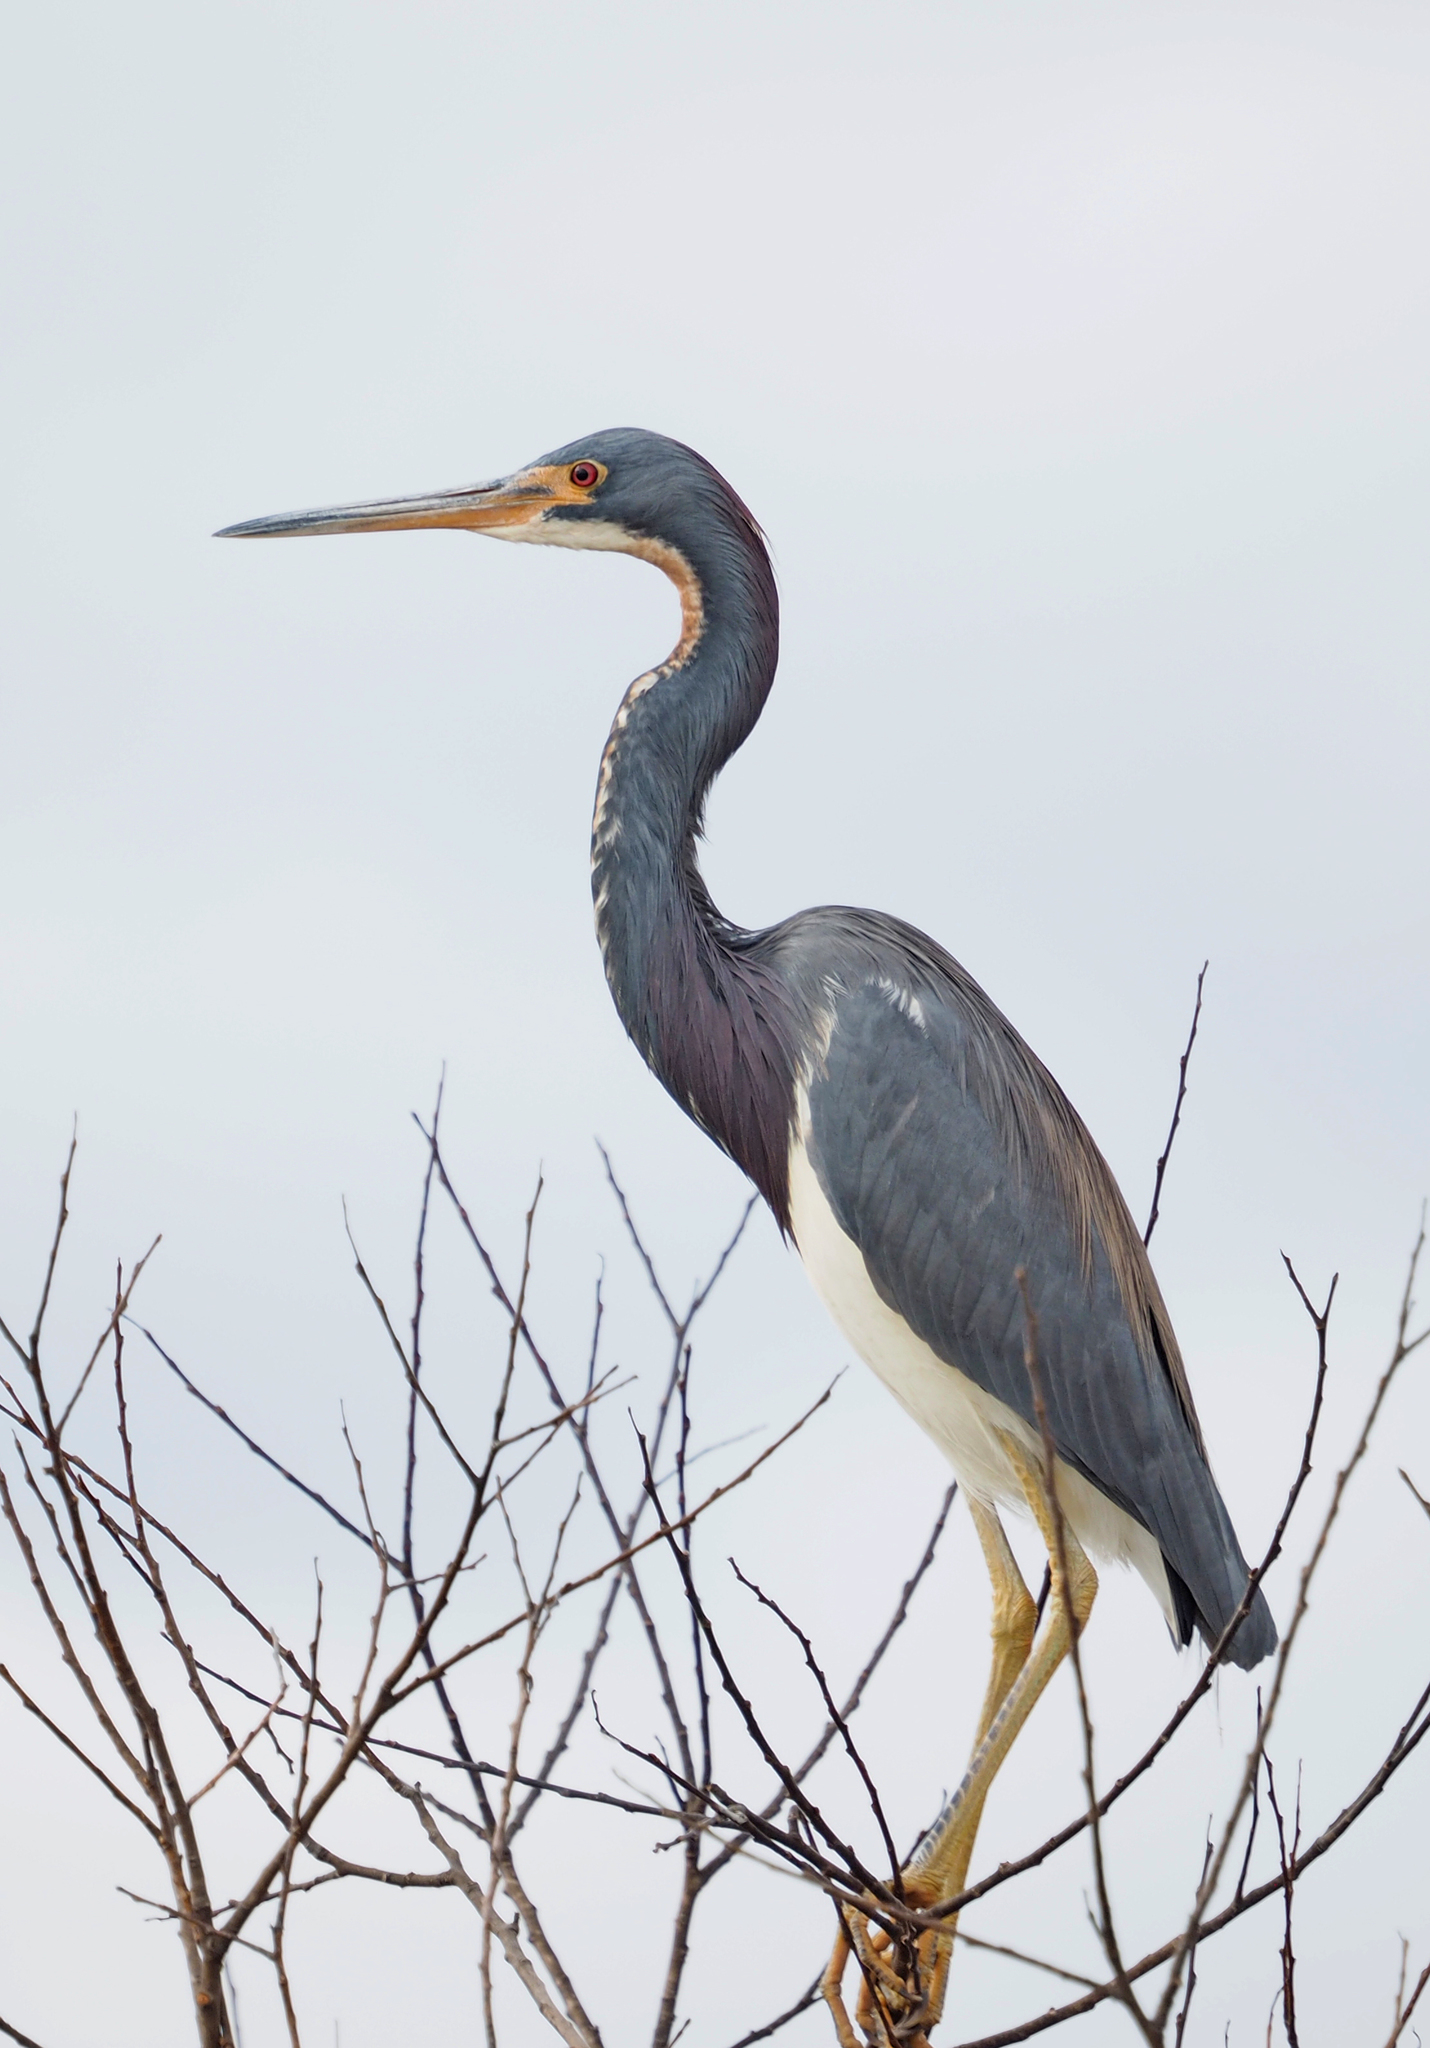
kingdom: Animalia
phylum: Chordata
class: Aves
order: Pelecaniformes
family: Ardeidae
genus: Egretta
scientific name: Egretta tricolor
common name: Tricolored heron
